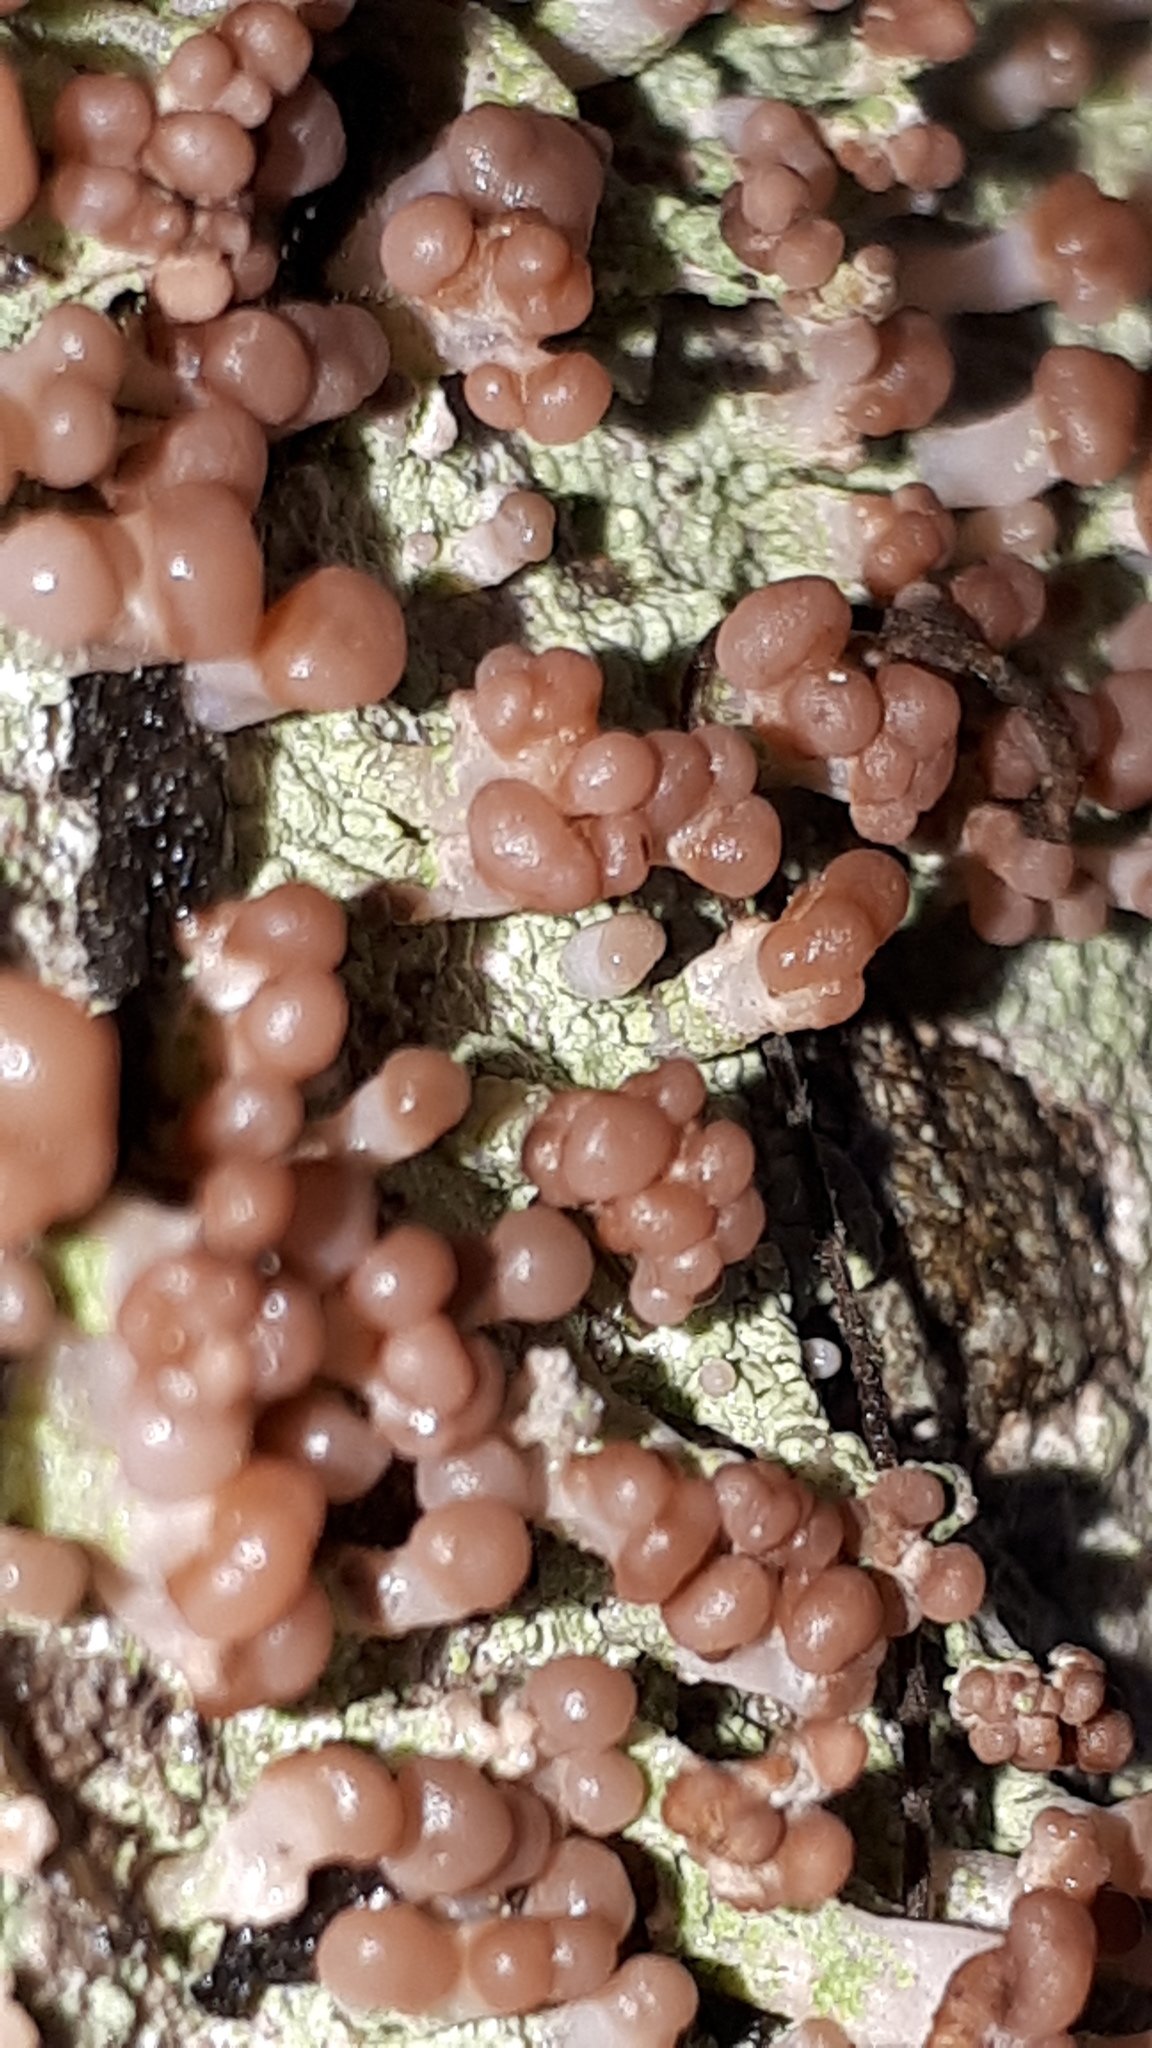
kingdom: Fungi
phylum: Ascomycota
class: Lecanoromycetes
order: Baeomycetales
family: Baeomycetaceae
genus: Baeomyces
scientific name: Baeomyces rufus
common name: Brown beret lichen
